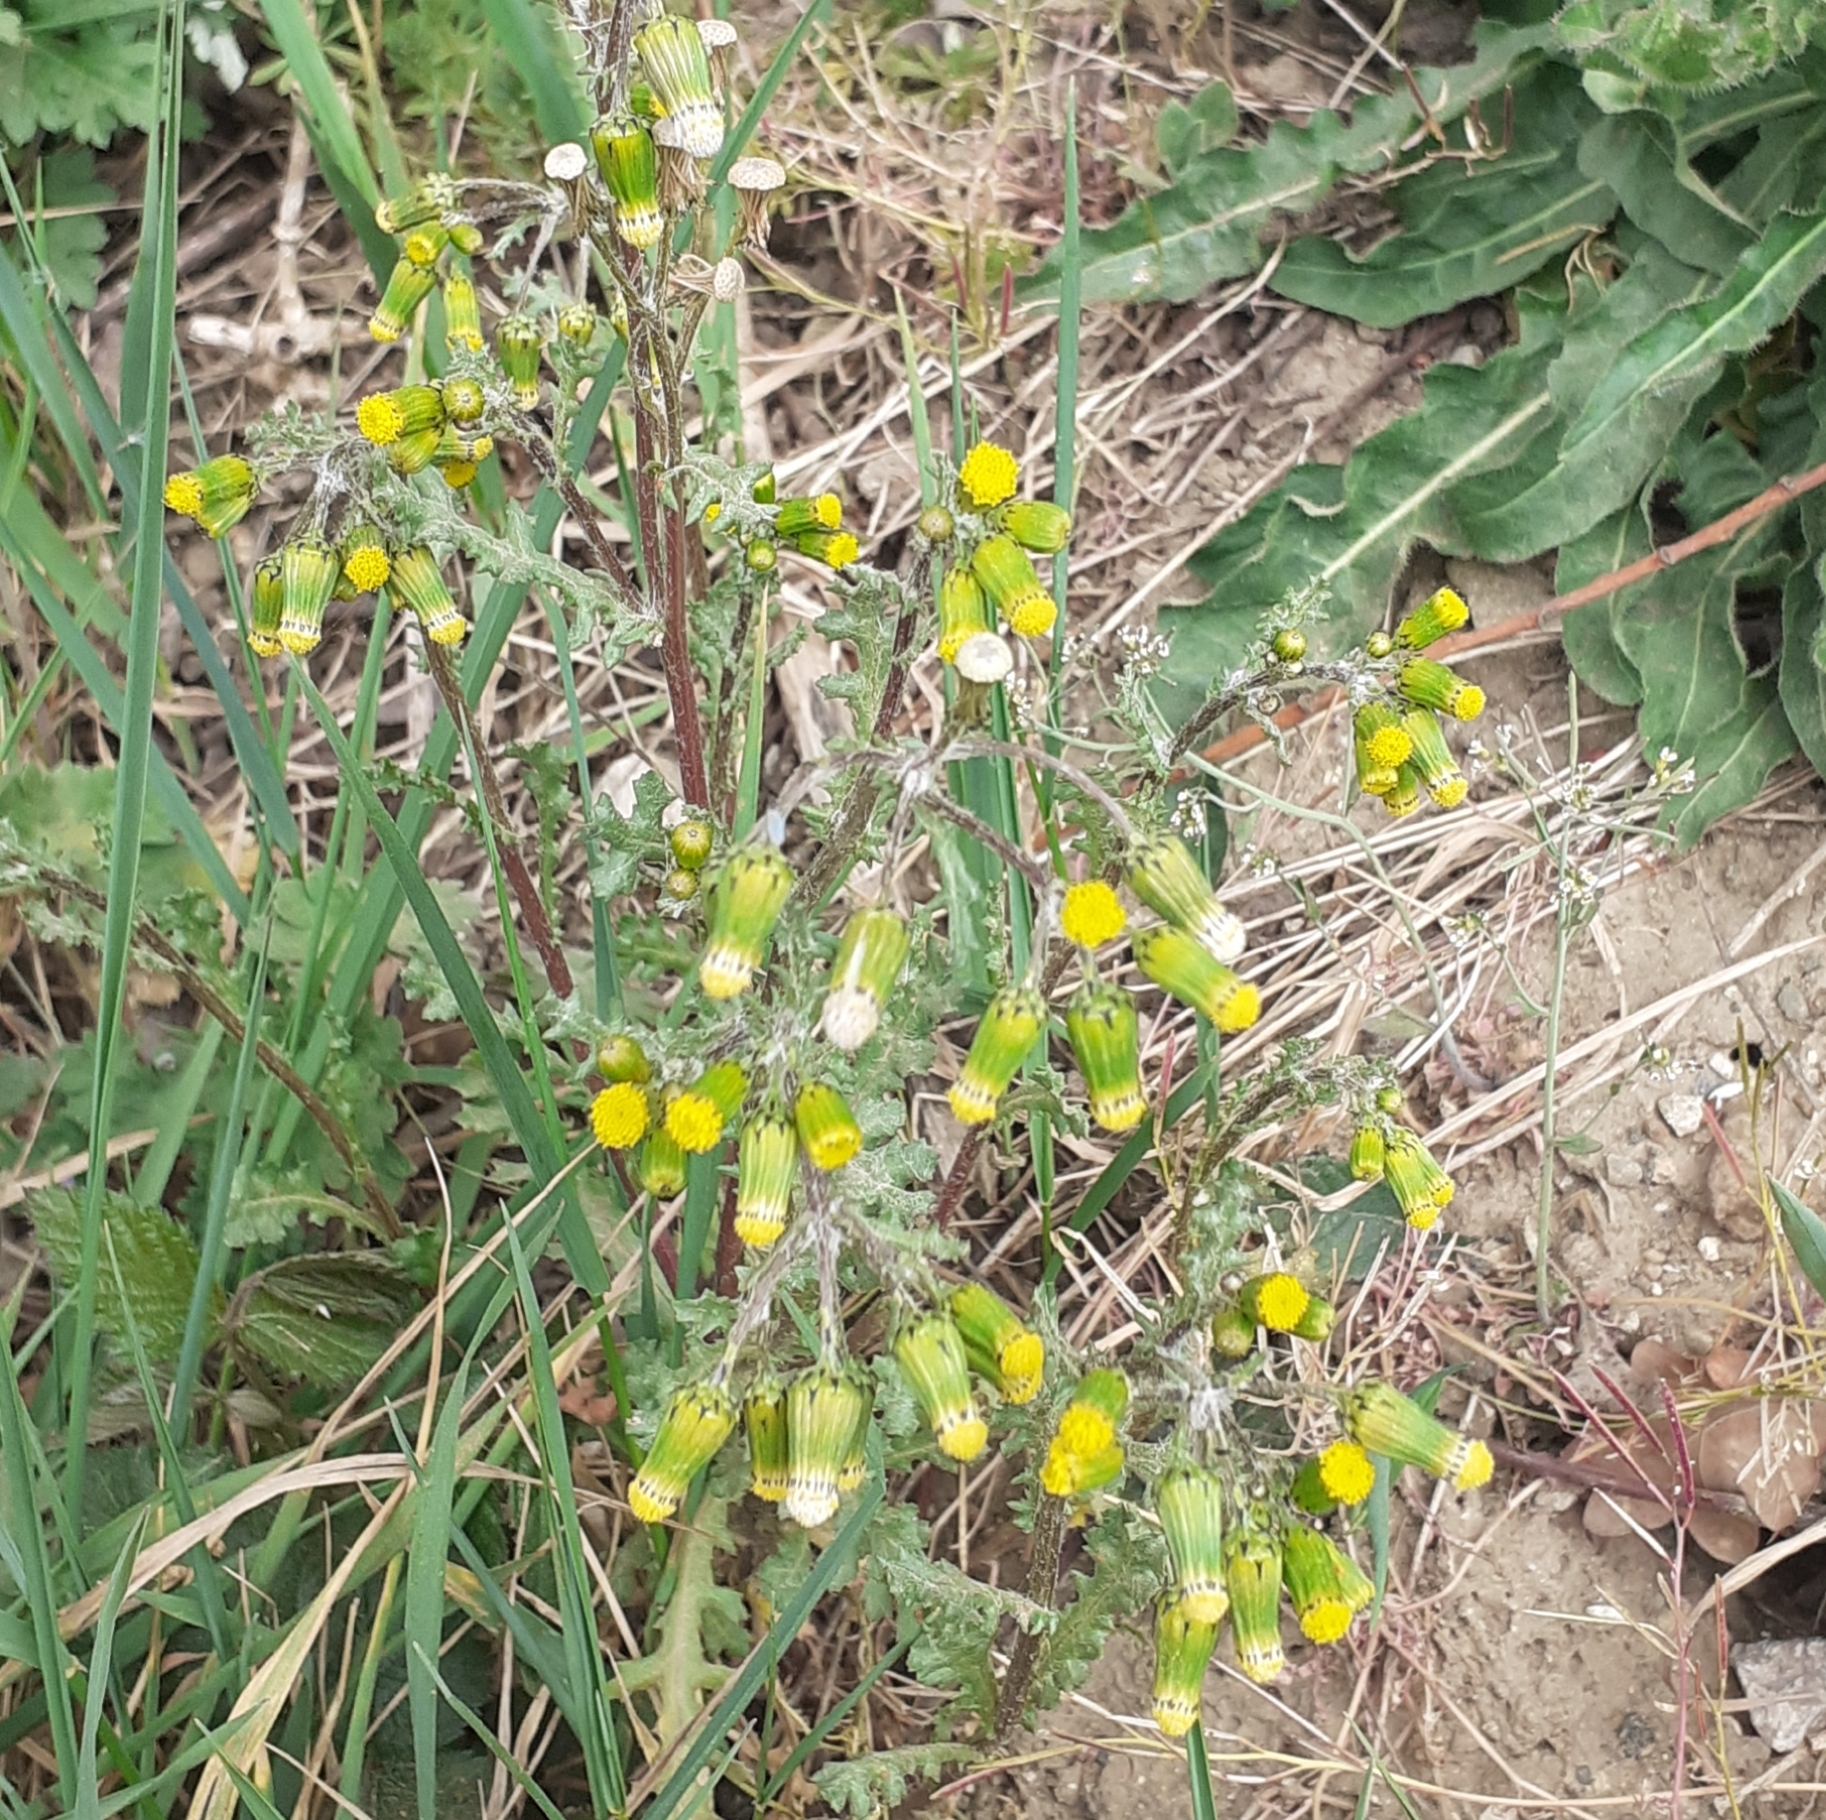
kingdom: Plantae
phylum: Tracheophyta
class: Magnoliopsida
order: Asterales
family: Asteraceae
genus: Senecio
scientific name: Senecio vulgaris
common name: Old-man-in-the-spring
